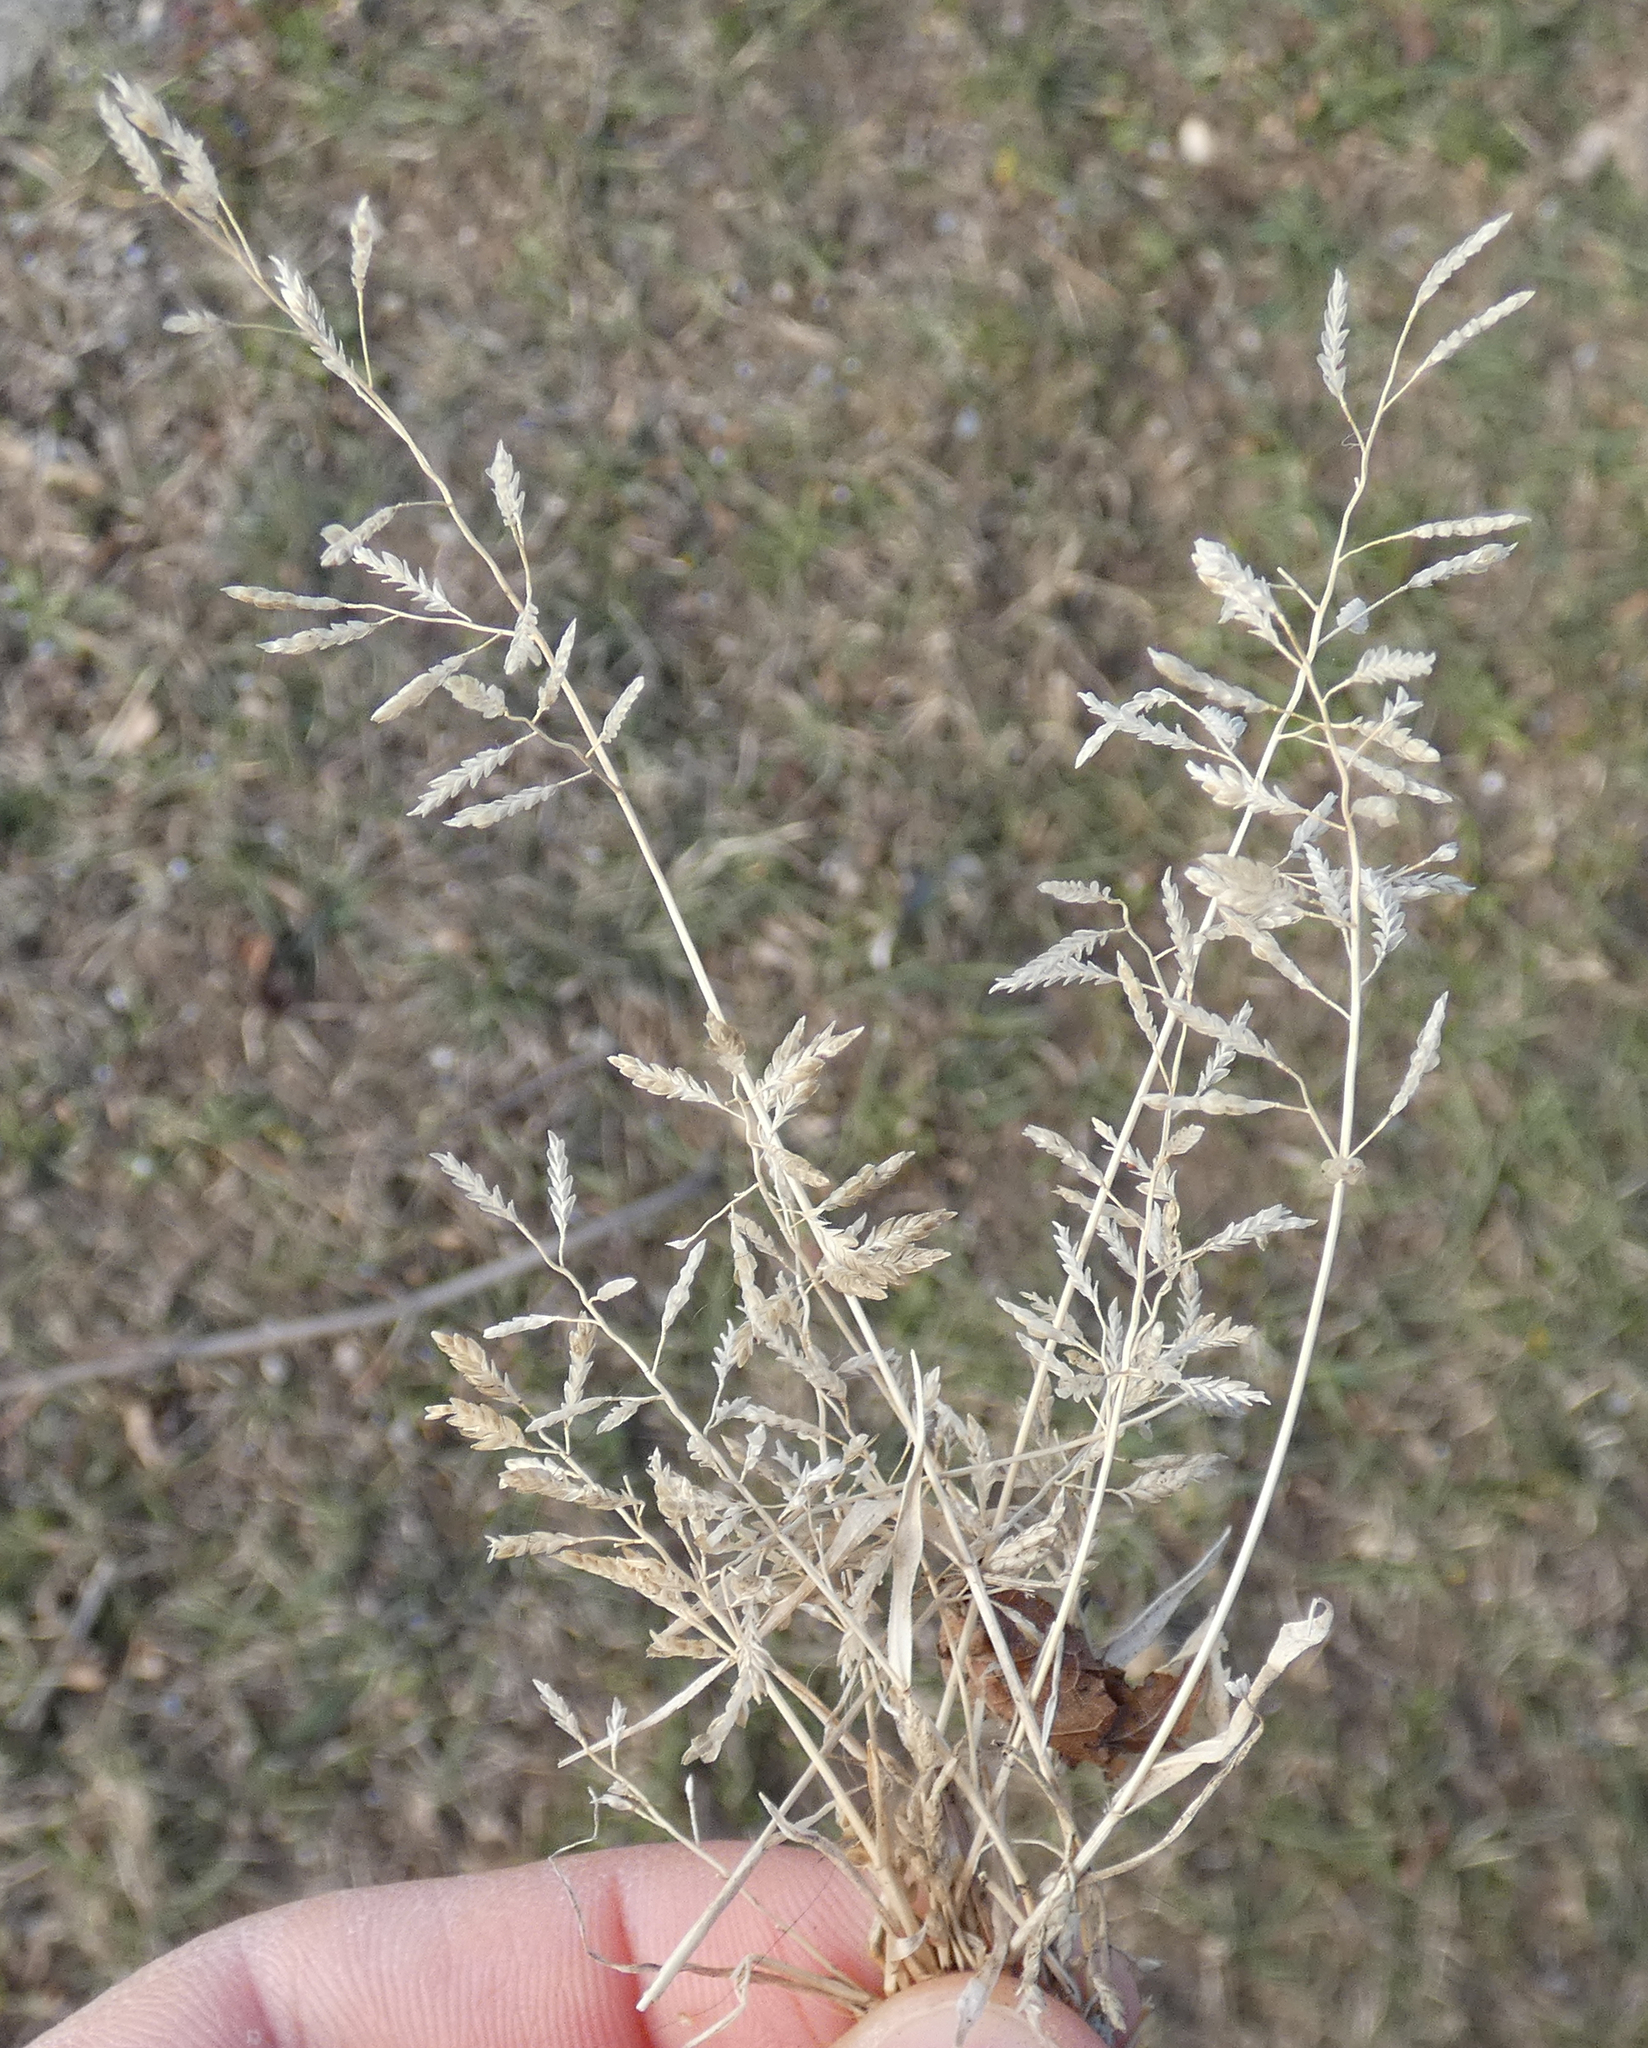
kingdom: Plantae
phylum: Tracheophyta
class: Liliopsida
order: Poales
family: Poaceae
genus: Eragrostis
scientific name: Eragrostis minor
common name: Small love-grass
